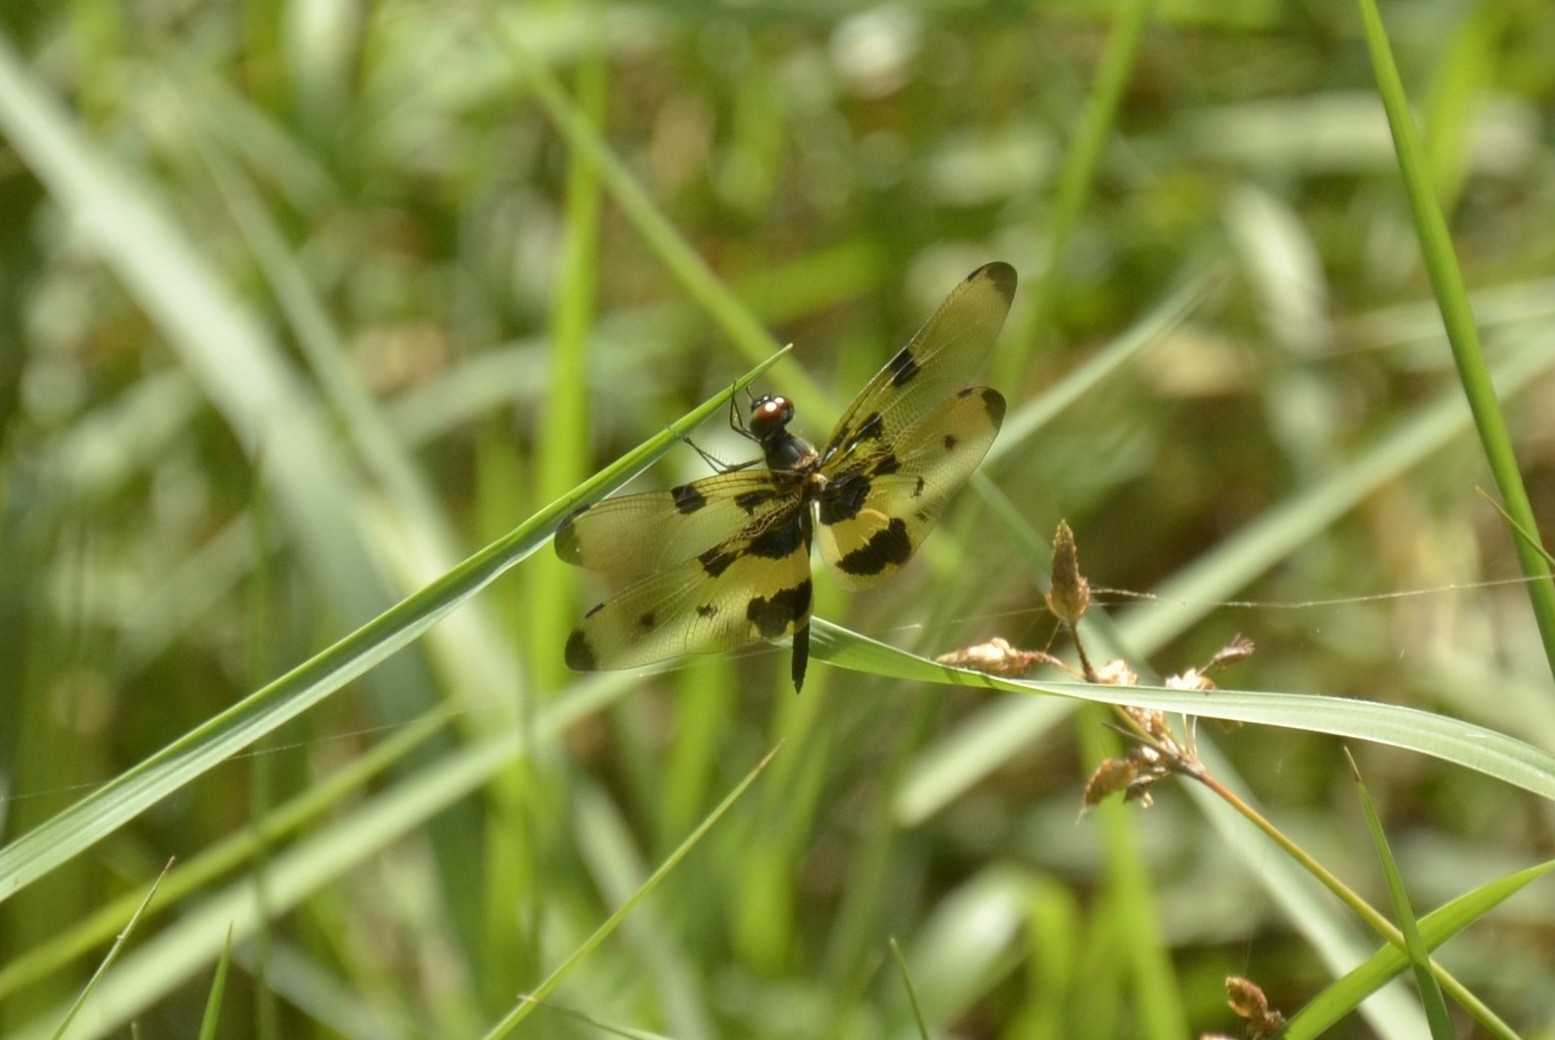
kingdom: Animalia
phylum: Arthropoda
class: Insecta
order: Odonata
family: Libellulidae
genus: Rhyothemis
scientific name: Rhyothemis variegata
